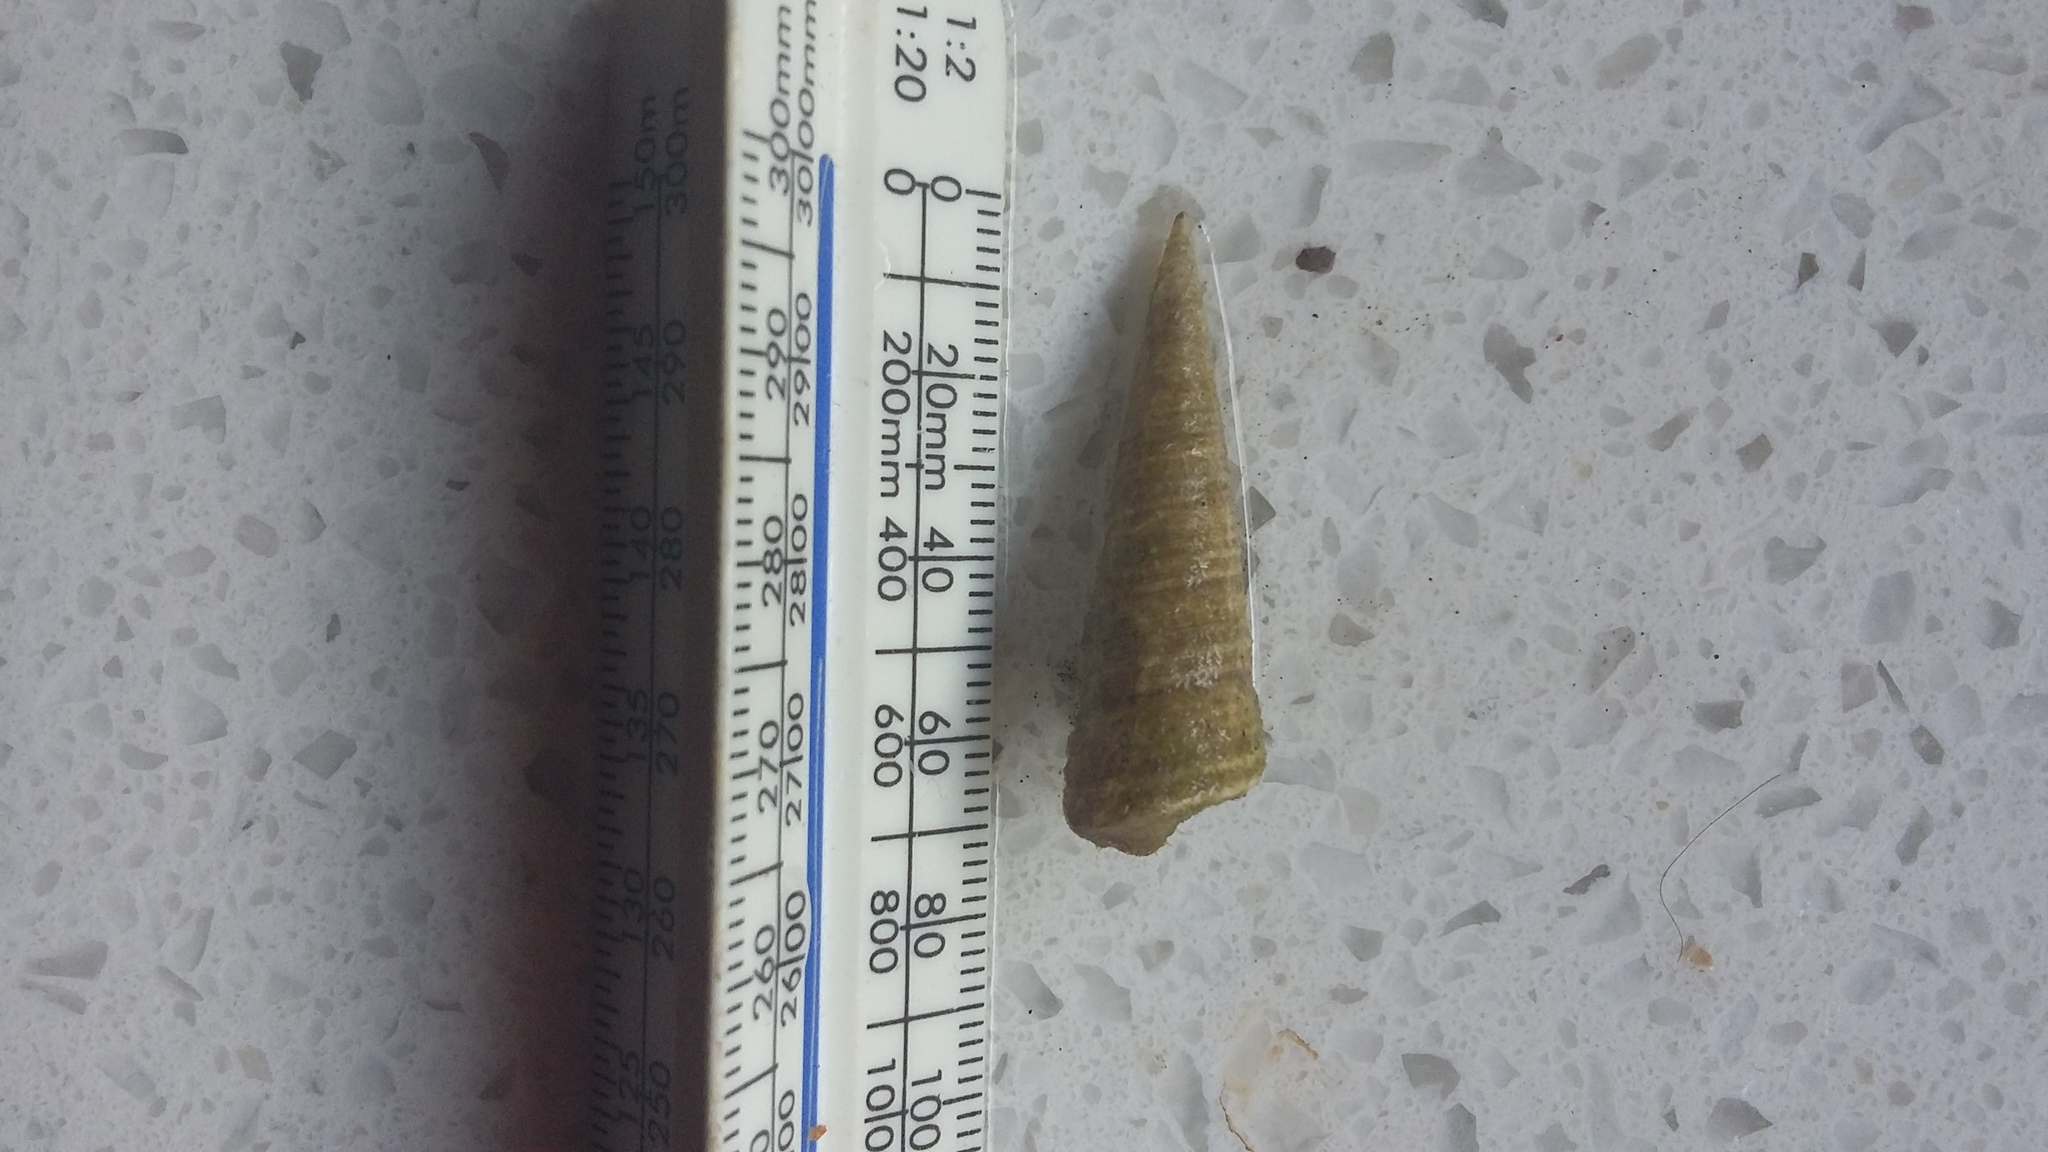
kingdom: Animalia
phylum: Mollusca
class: Gastropoda
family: Turritellidae
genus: Maoricolpus
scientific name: Maoricolpus roseus
